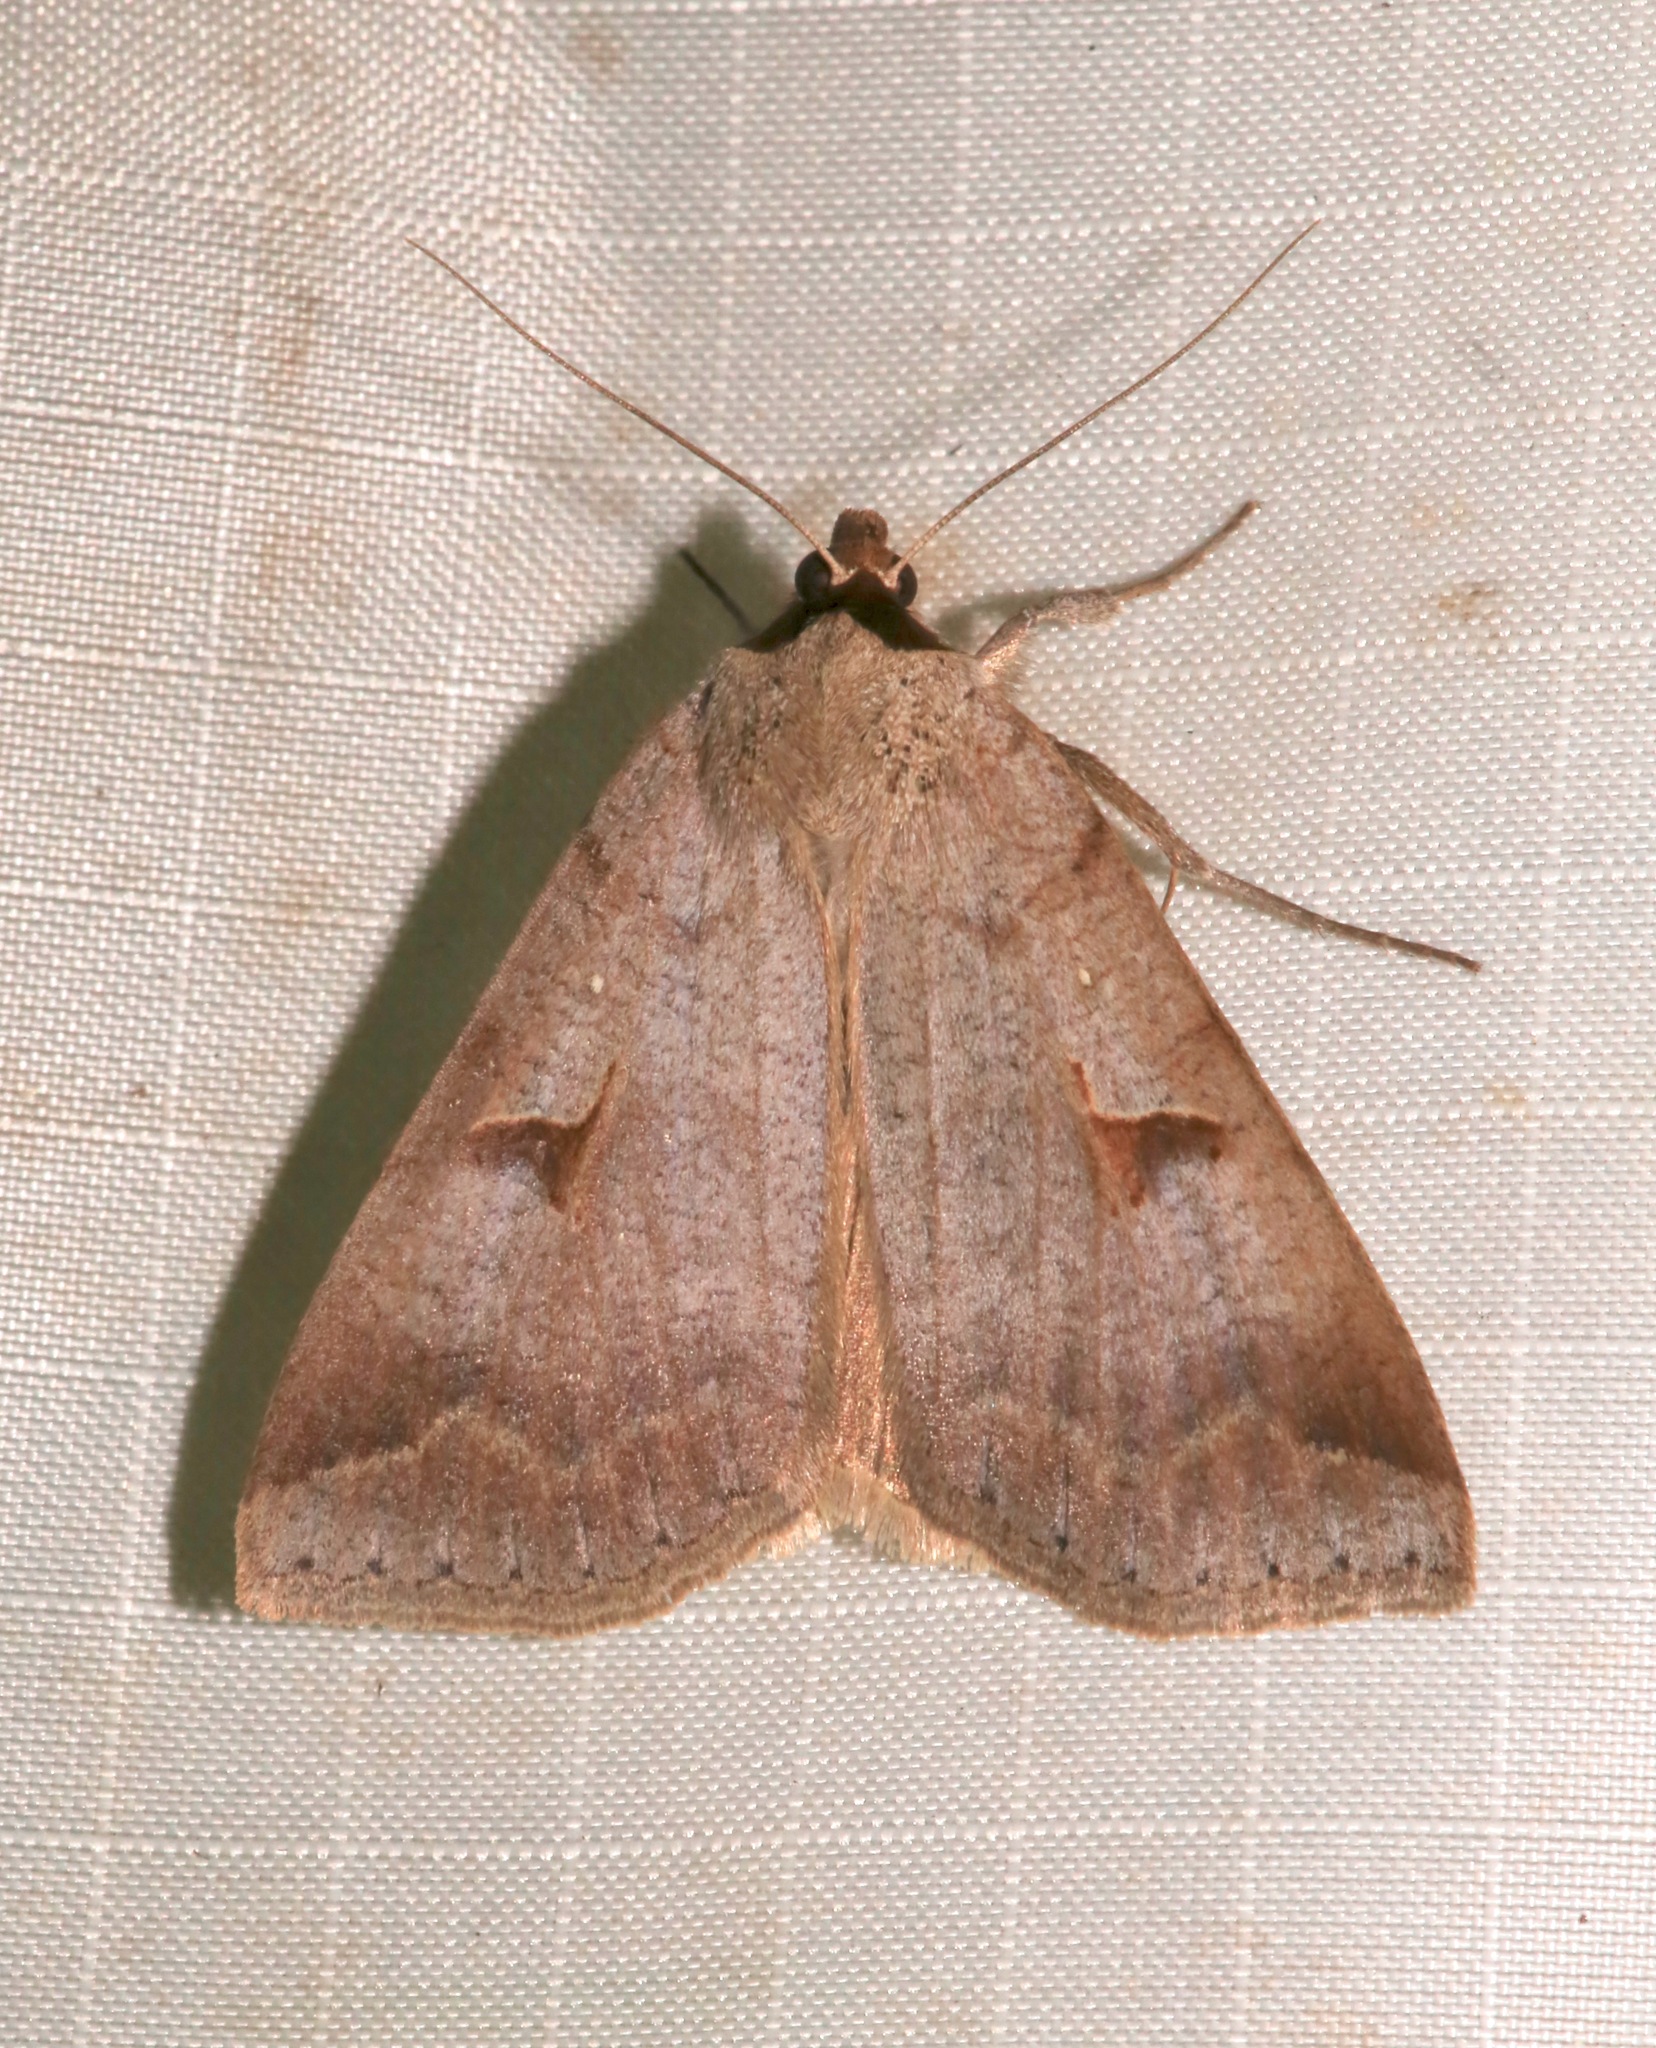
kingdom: Animalia
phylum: Arthropoda
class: Insecta
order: Lepidoptera
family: Erebidae
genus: Lygephila
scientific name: Lygephila victoria
